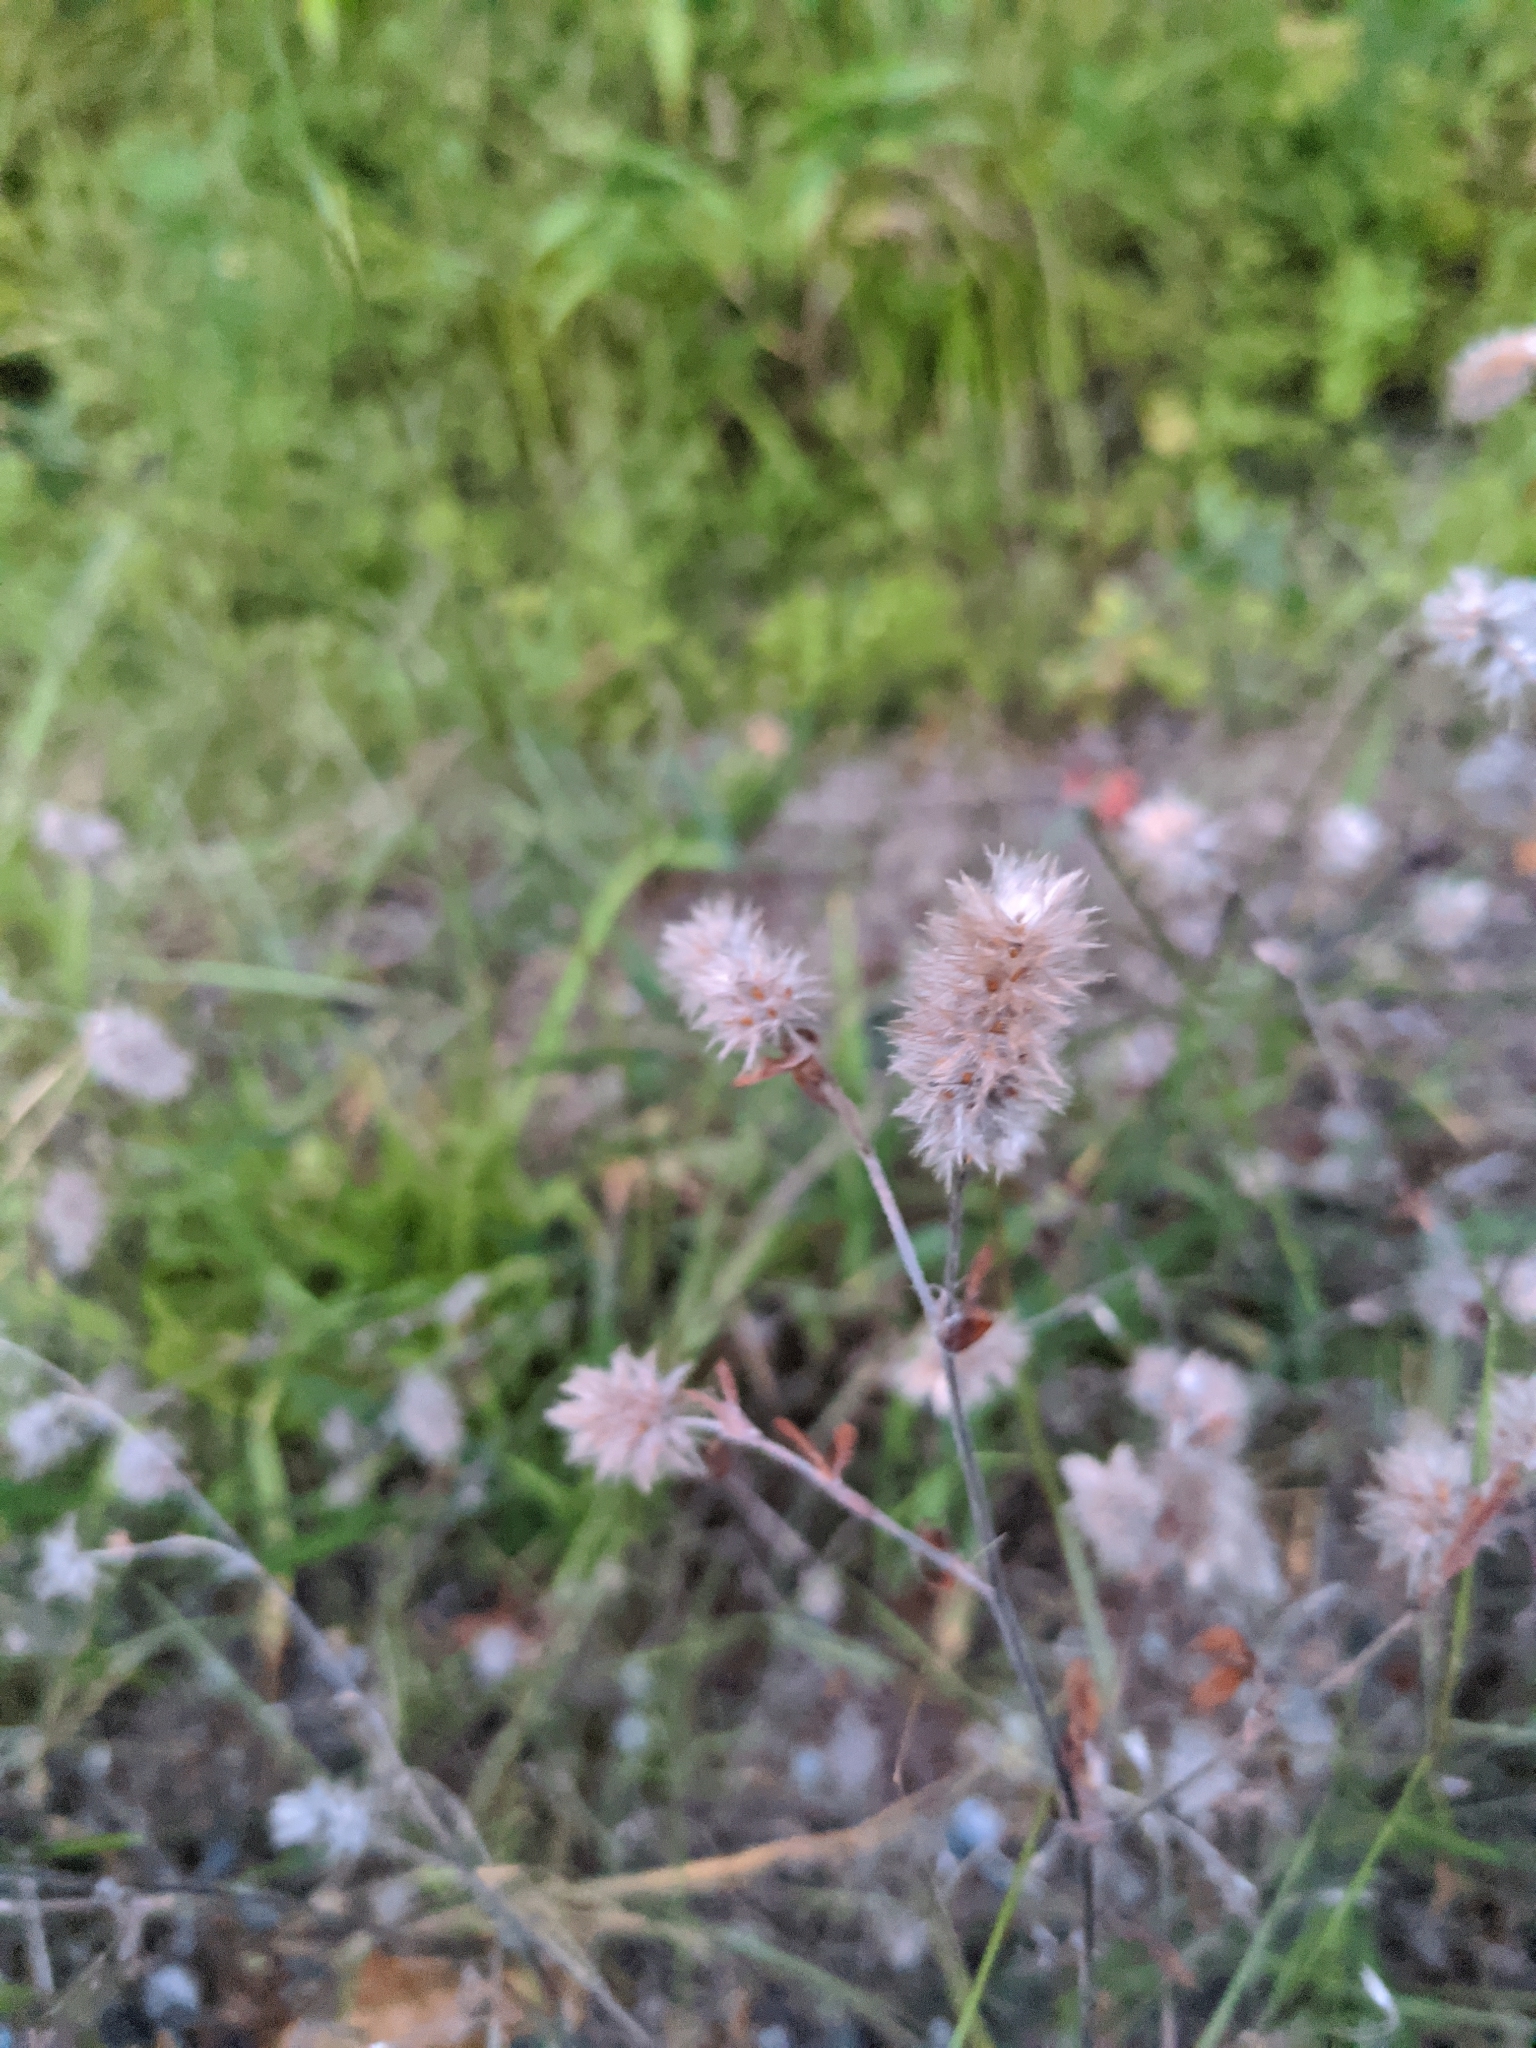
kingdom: Plantae
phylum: Tracheophyta
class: Magnoliopsida
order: Fabales
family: Fabaceae
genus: Trifolium
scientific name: Trifolium arvense
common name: Hare's-foot clover
